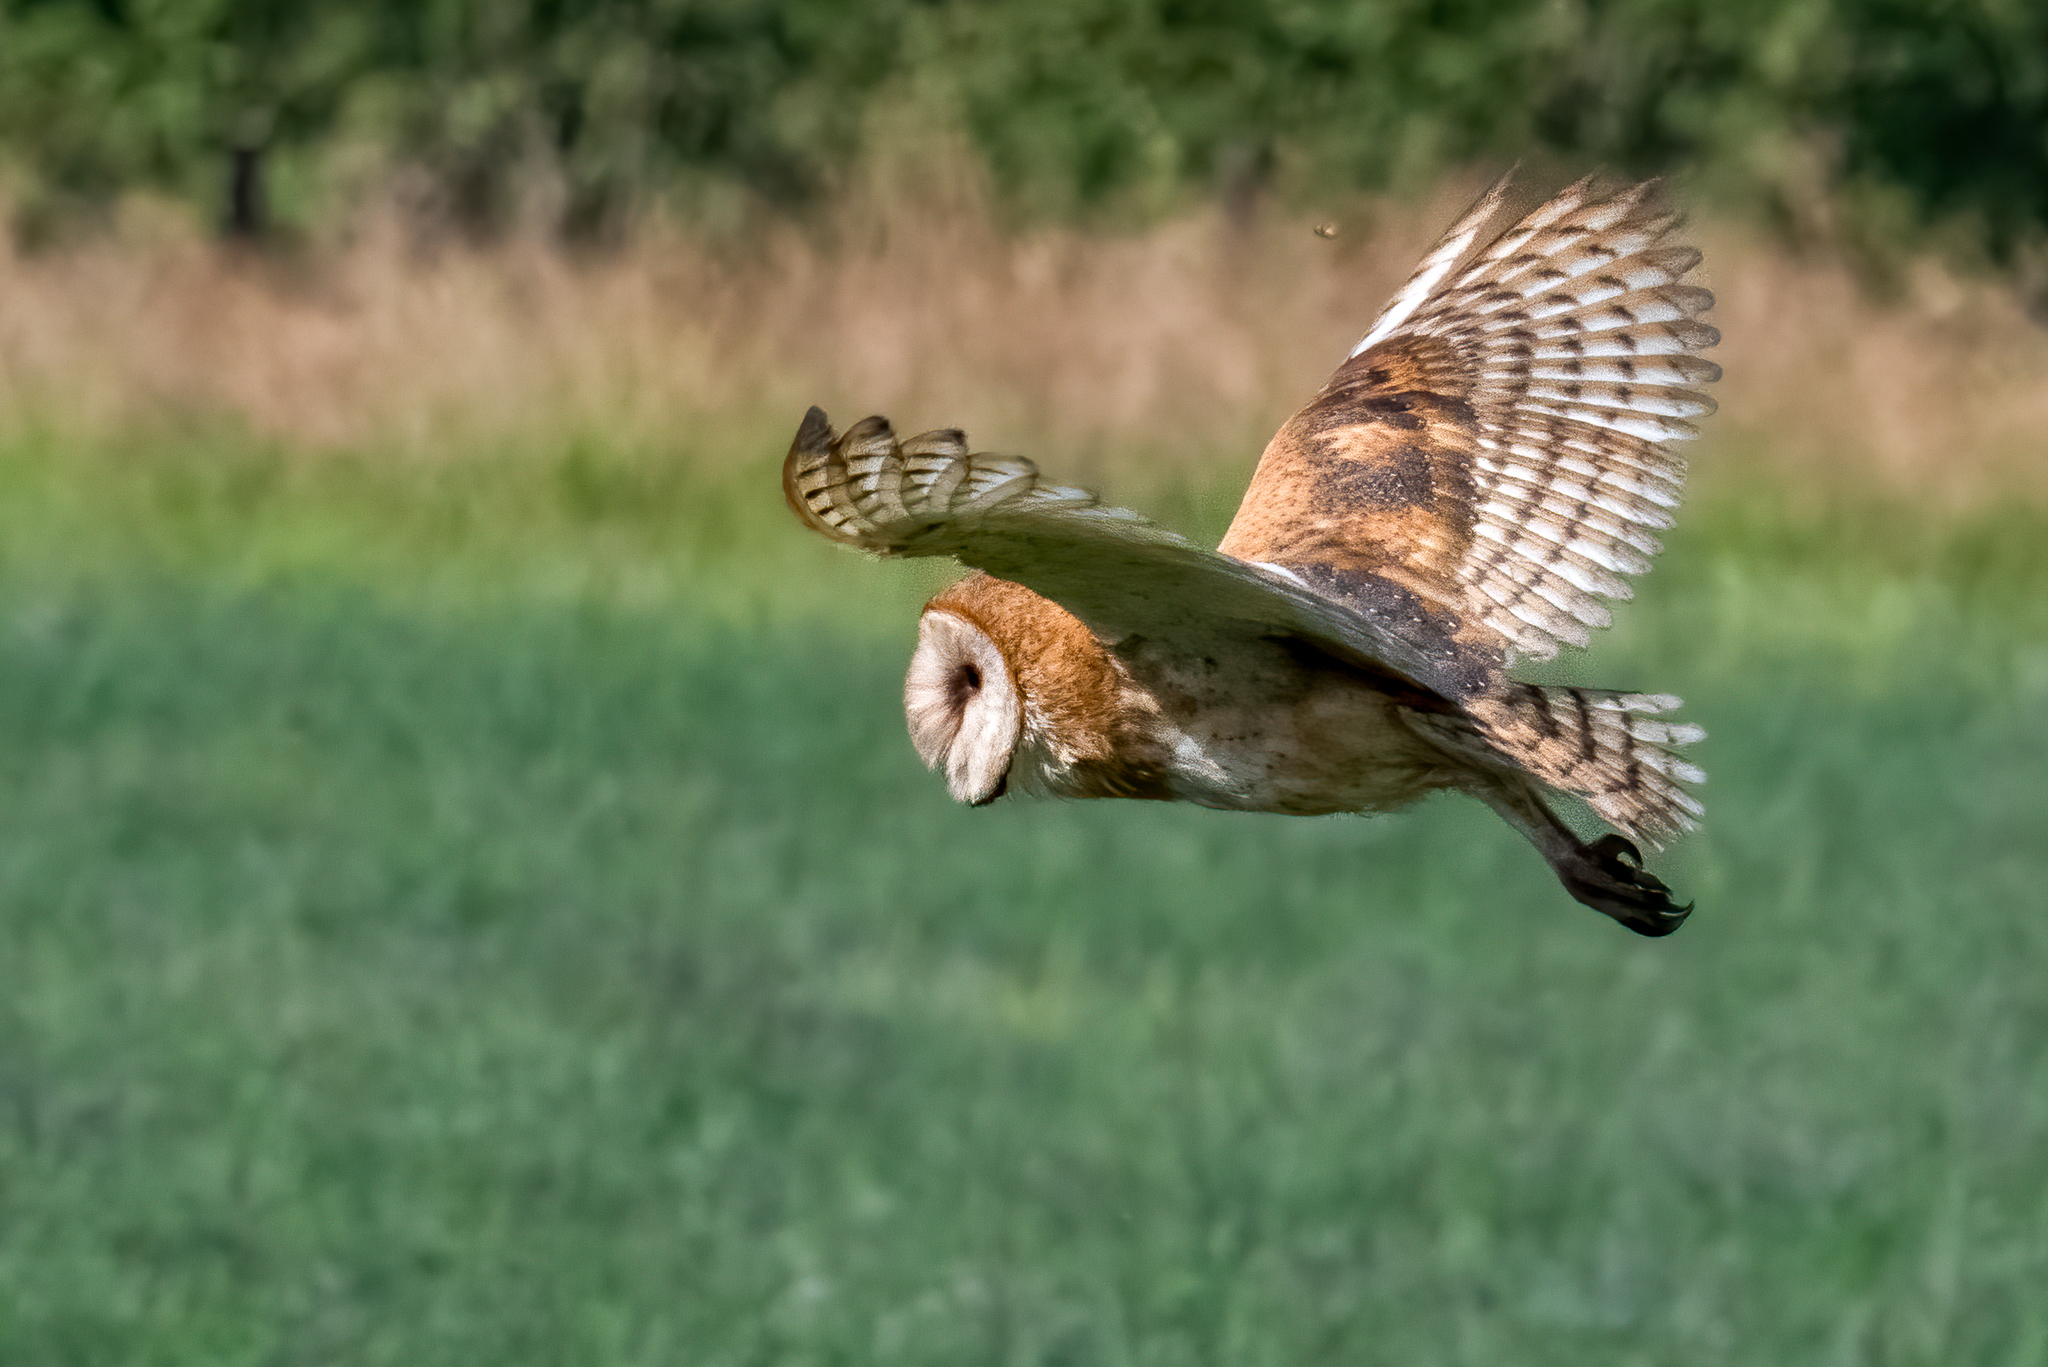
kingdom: Animalia
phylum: Chordata
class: Aves
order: Strigiformes
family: Tytonidae
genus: Tyto
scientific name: Tyto alba
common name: Barn owl
